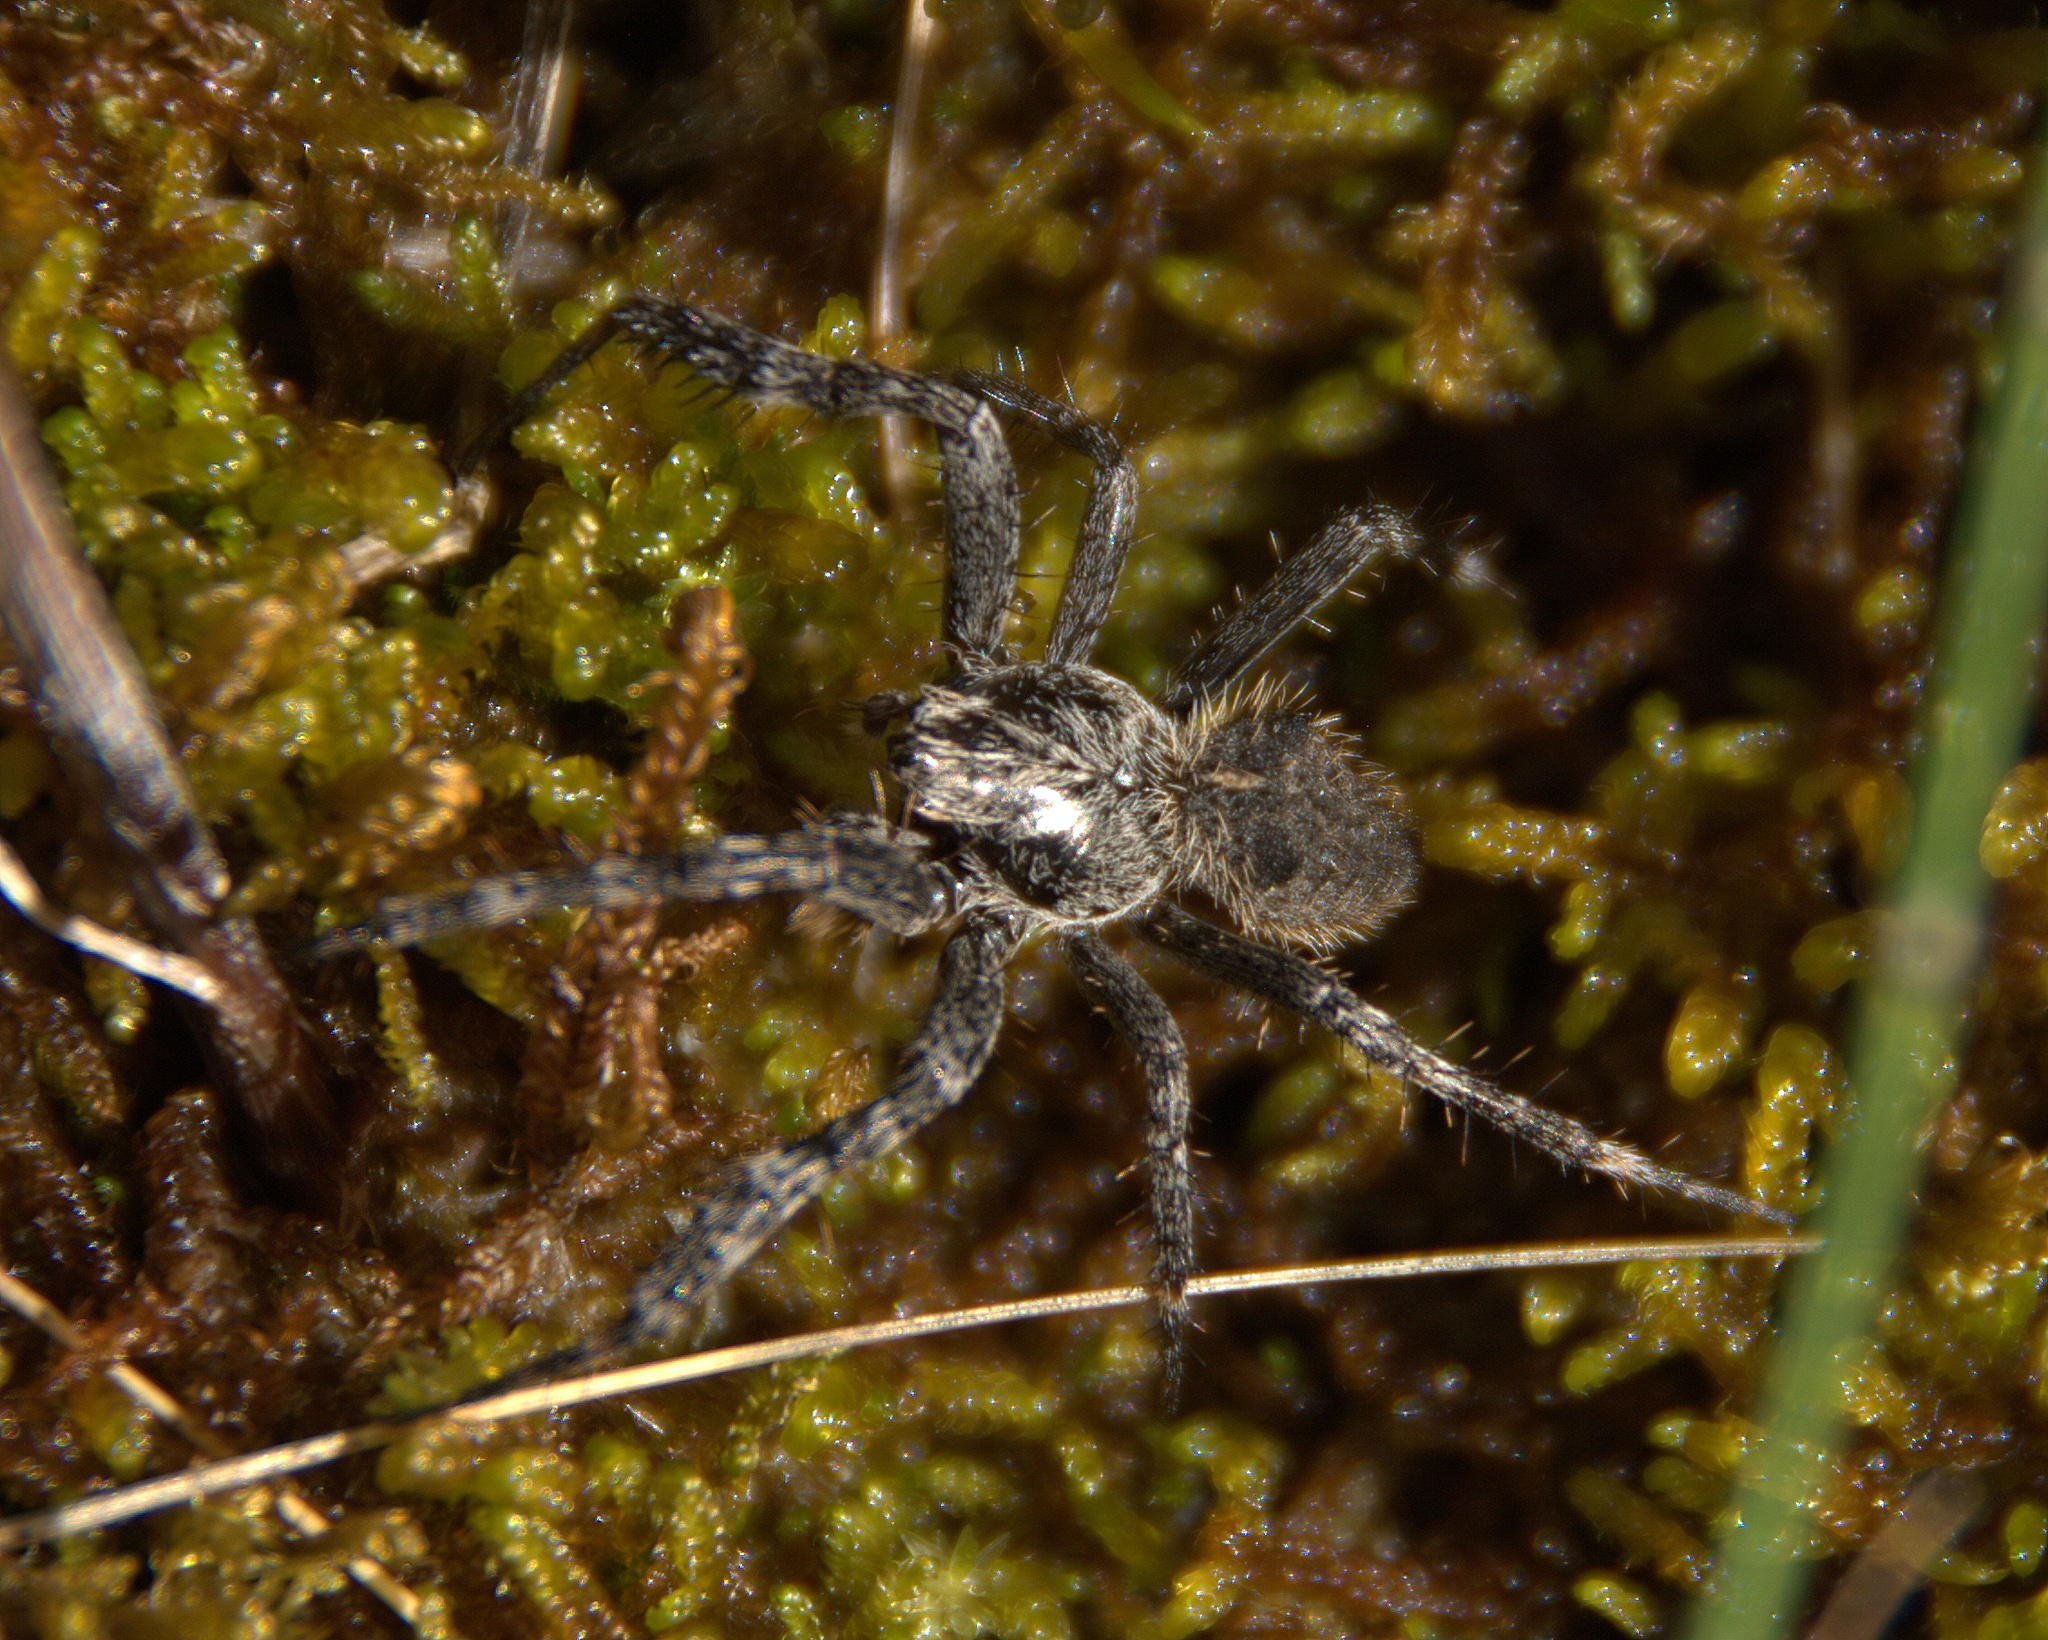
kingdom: Animalia
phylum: Arthropoda
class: Arachnida
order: Araneae
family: Araneidae
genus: Araneus
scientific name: Araneus saevus
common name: Fierce orbweaver
